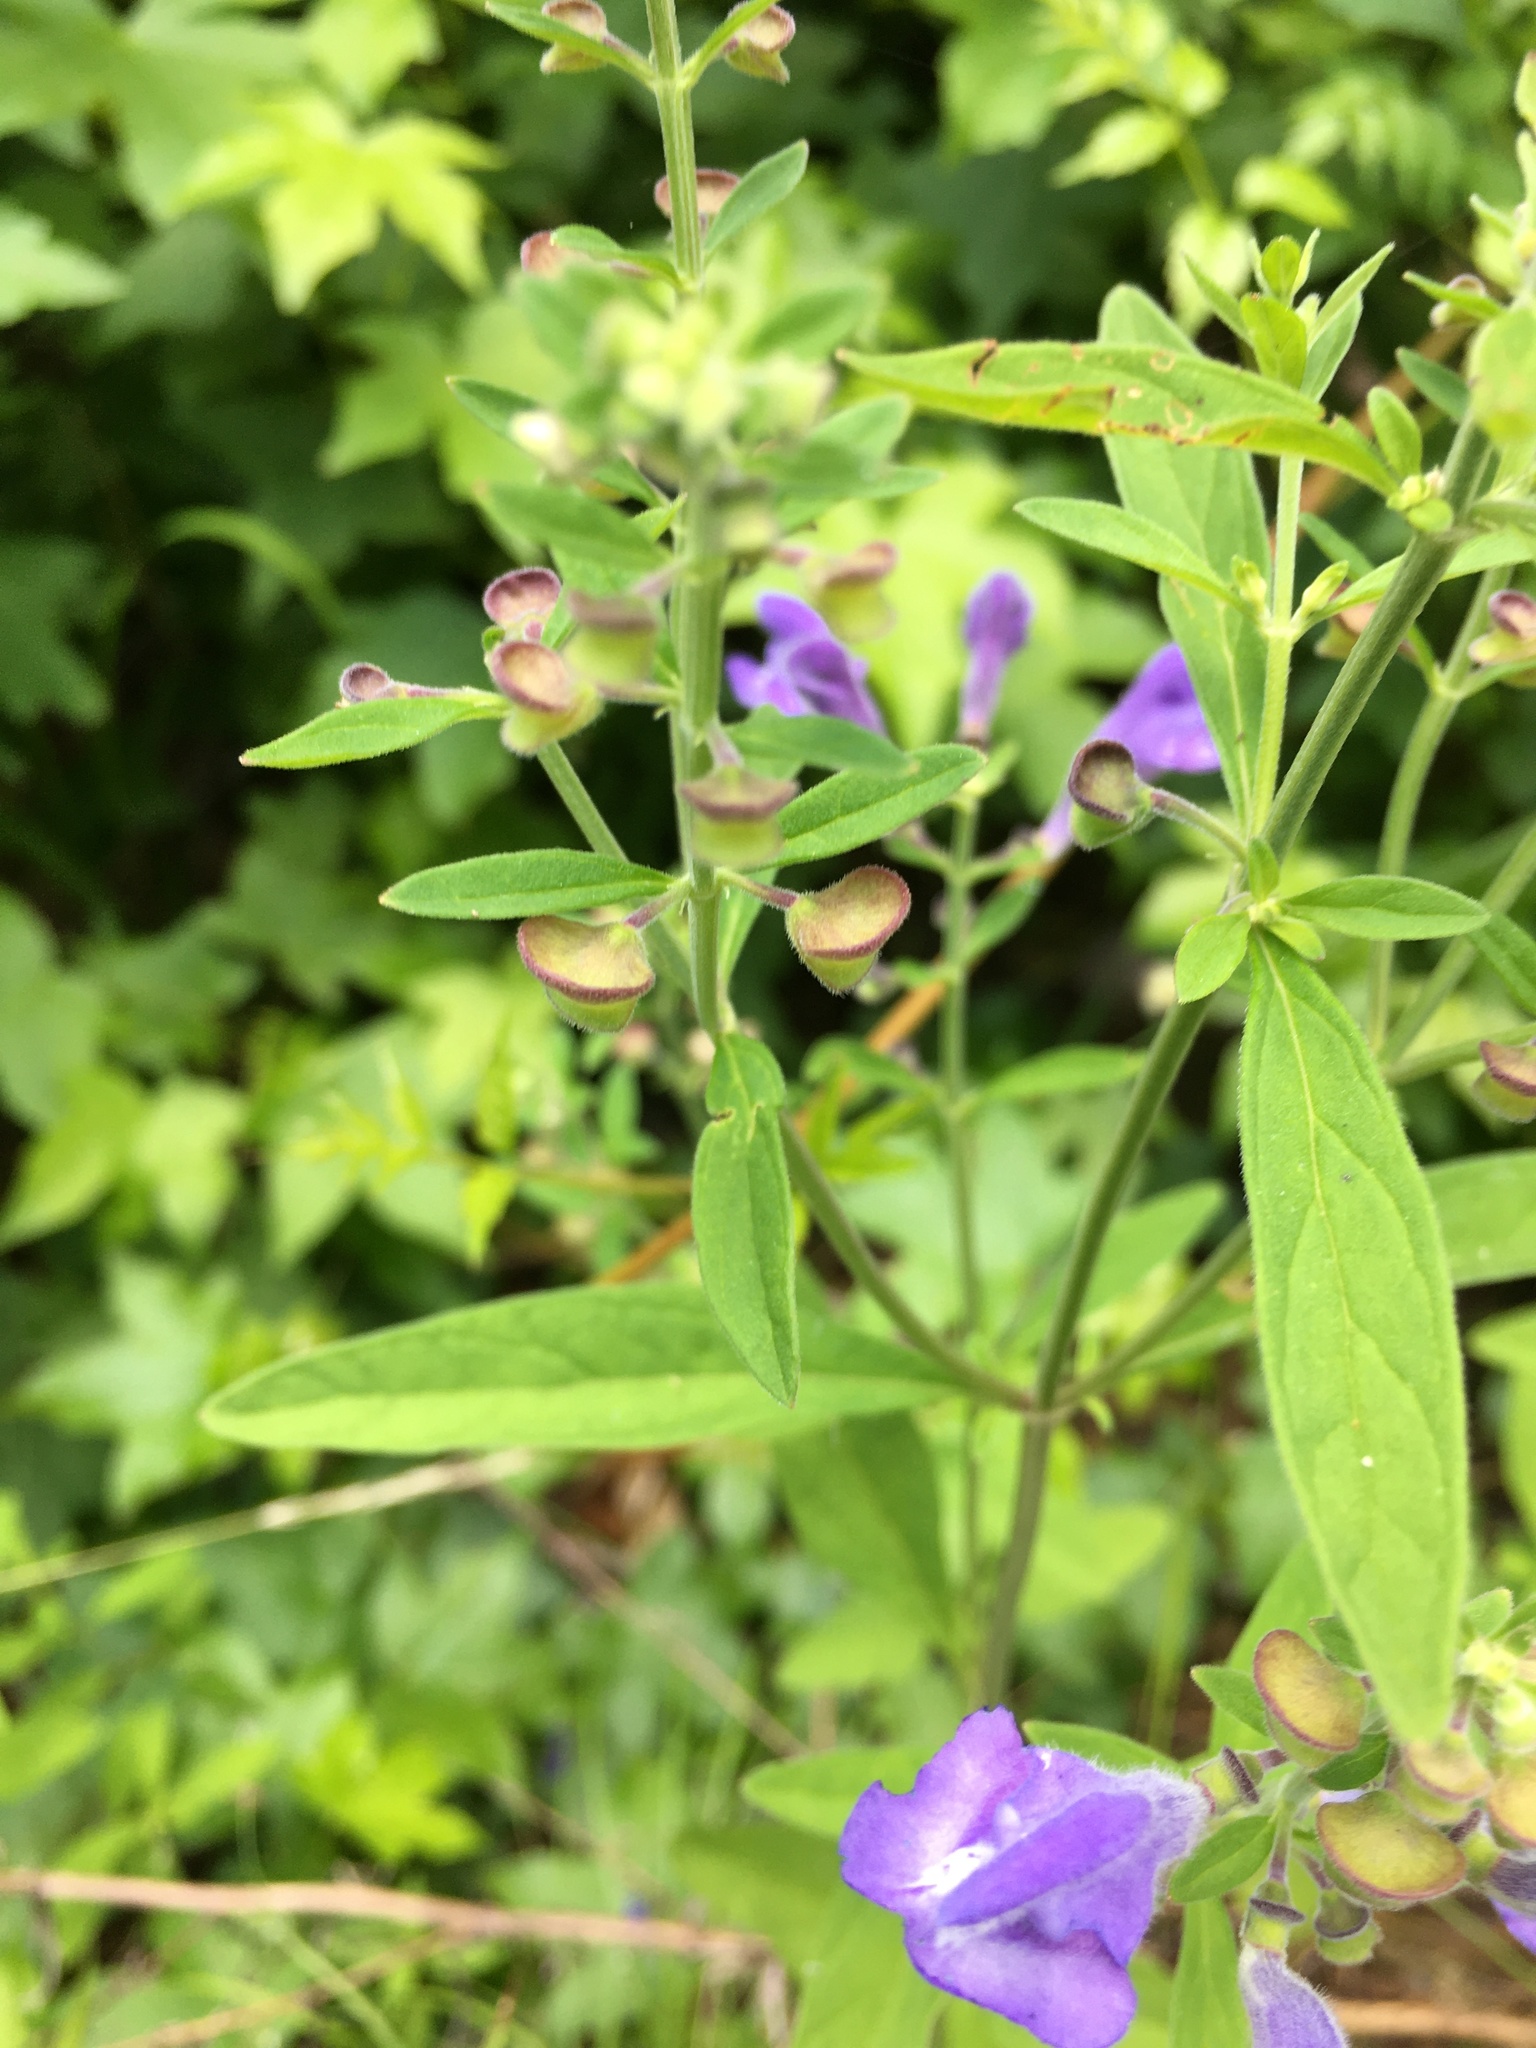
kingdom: Plantae
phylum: Tracheophyta
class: Magnoliopsida
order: Lamiales
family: Lamiaceae
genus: Scutellaria
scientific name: Scutellaria integrifolia
